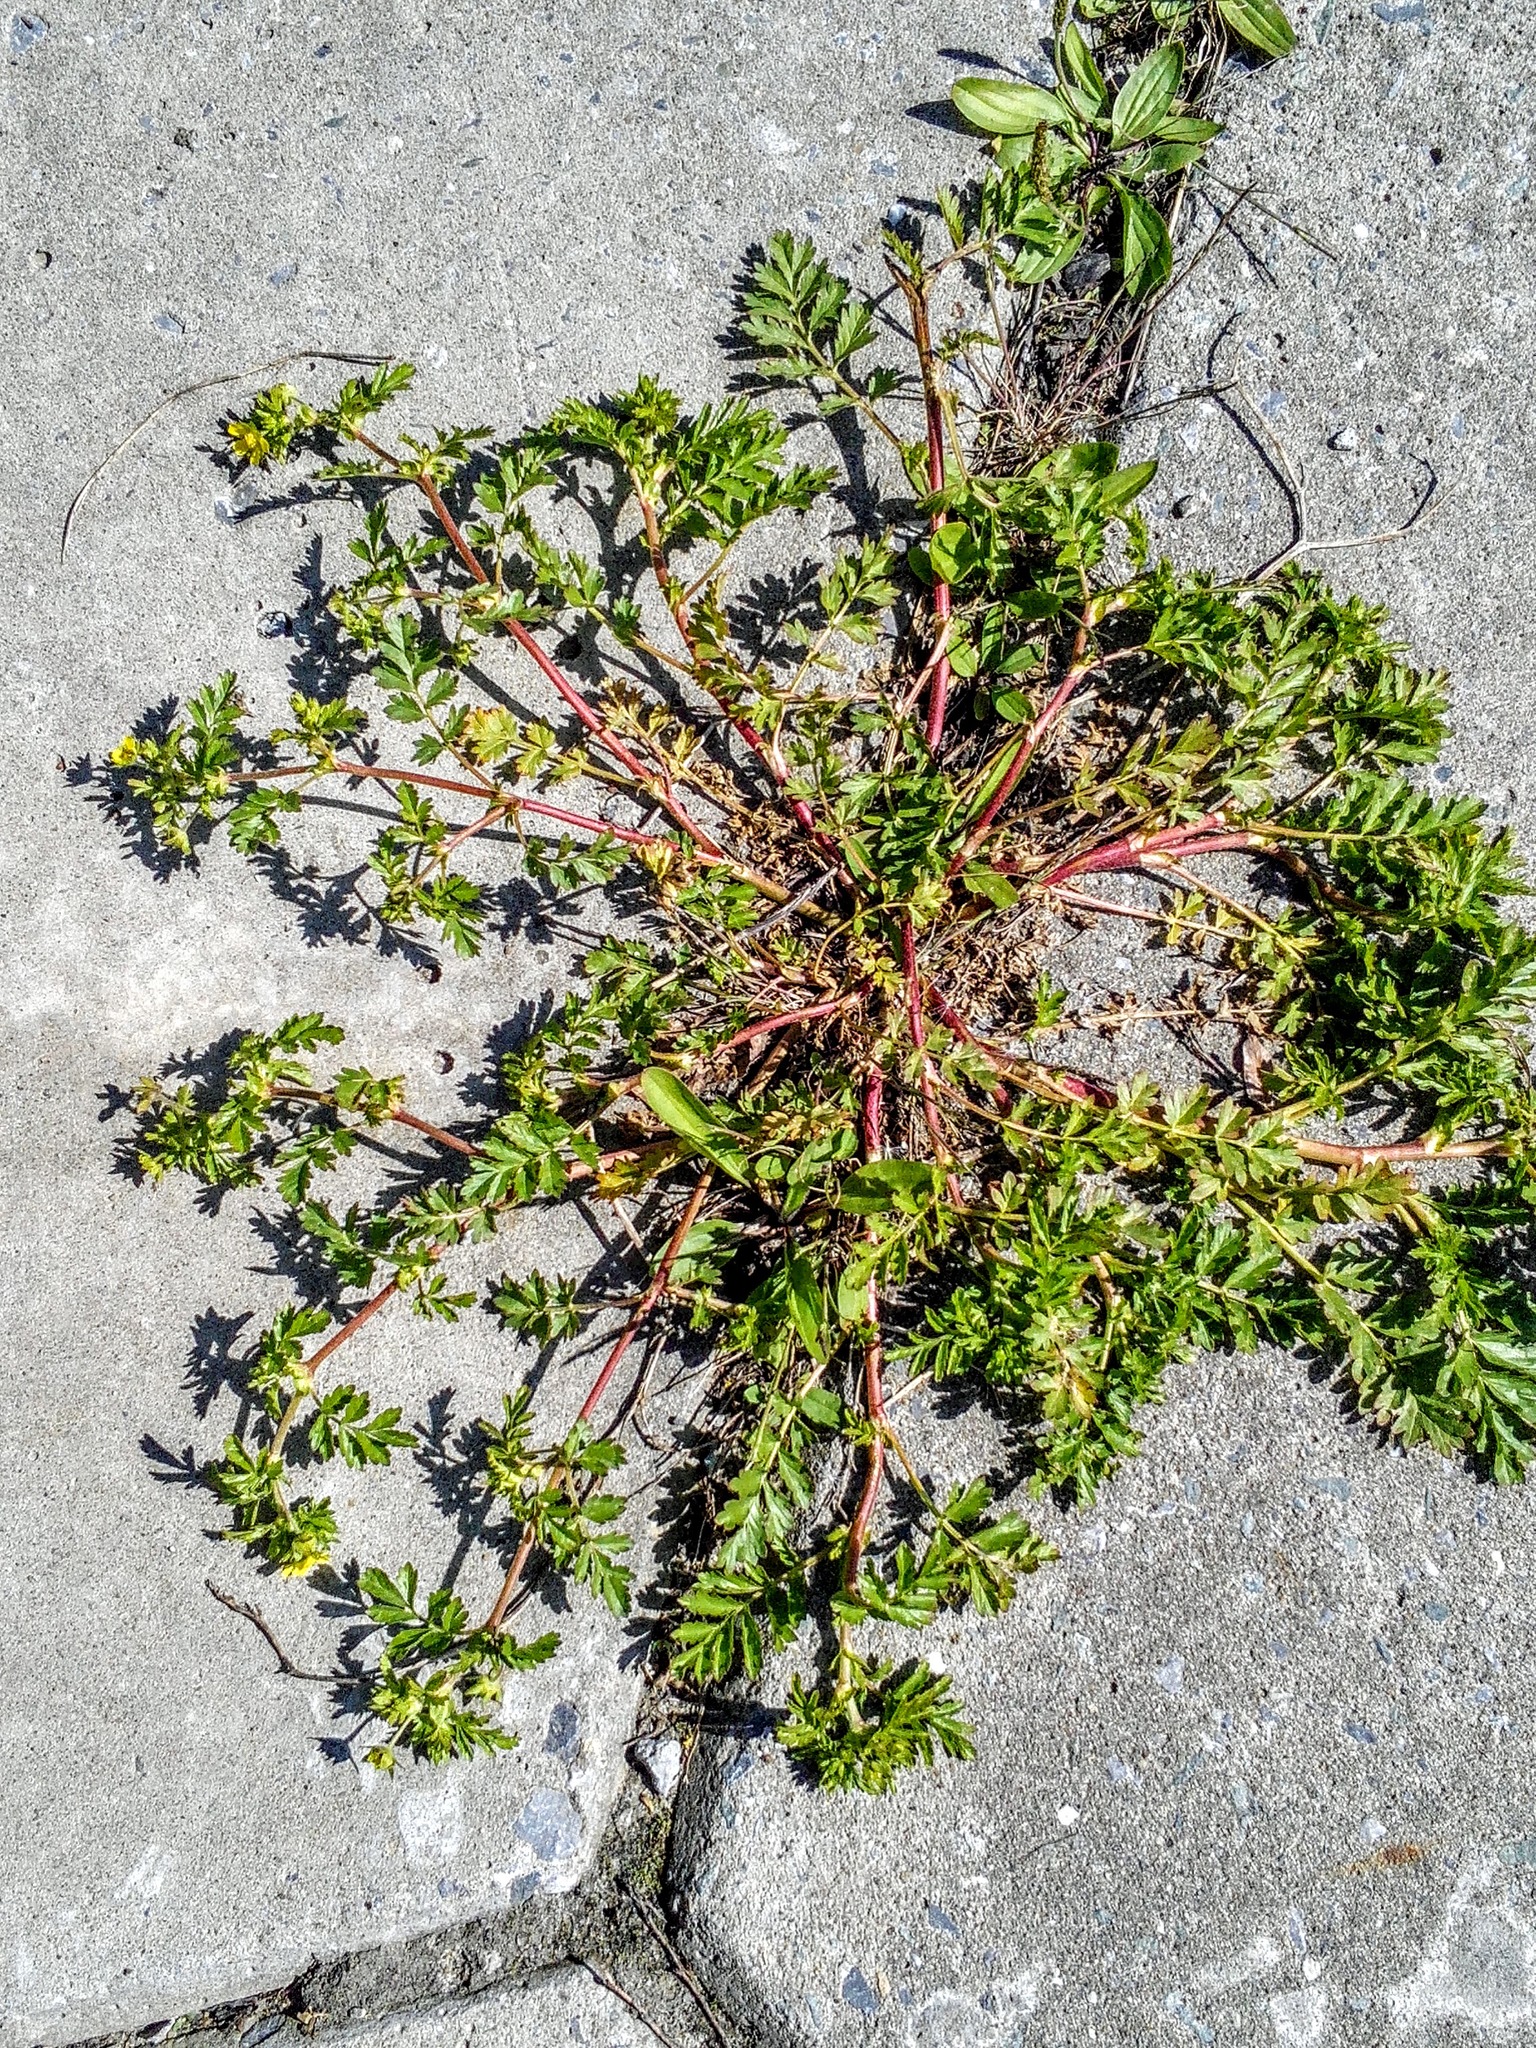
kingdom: Plantae
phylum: Tracheophyta
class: Magnoliopsida
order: Rosales
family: Rosaceae
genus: Potentilla
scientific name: Potentilla supina
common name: Prostrate cinquefoil
